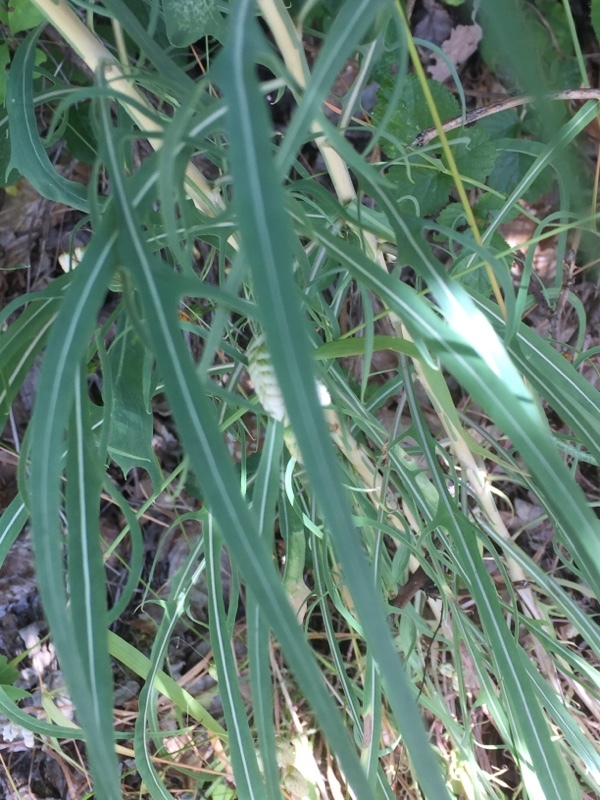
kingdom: Plantae
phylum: Tracheophyta
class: Magnoliopsida
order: Asterales
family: Asteraceae
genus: Lactuca
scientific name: Lactuca viminea
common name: Pliant lettuce
